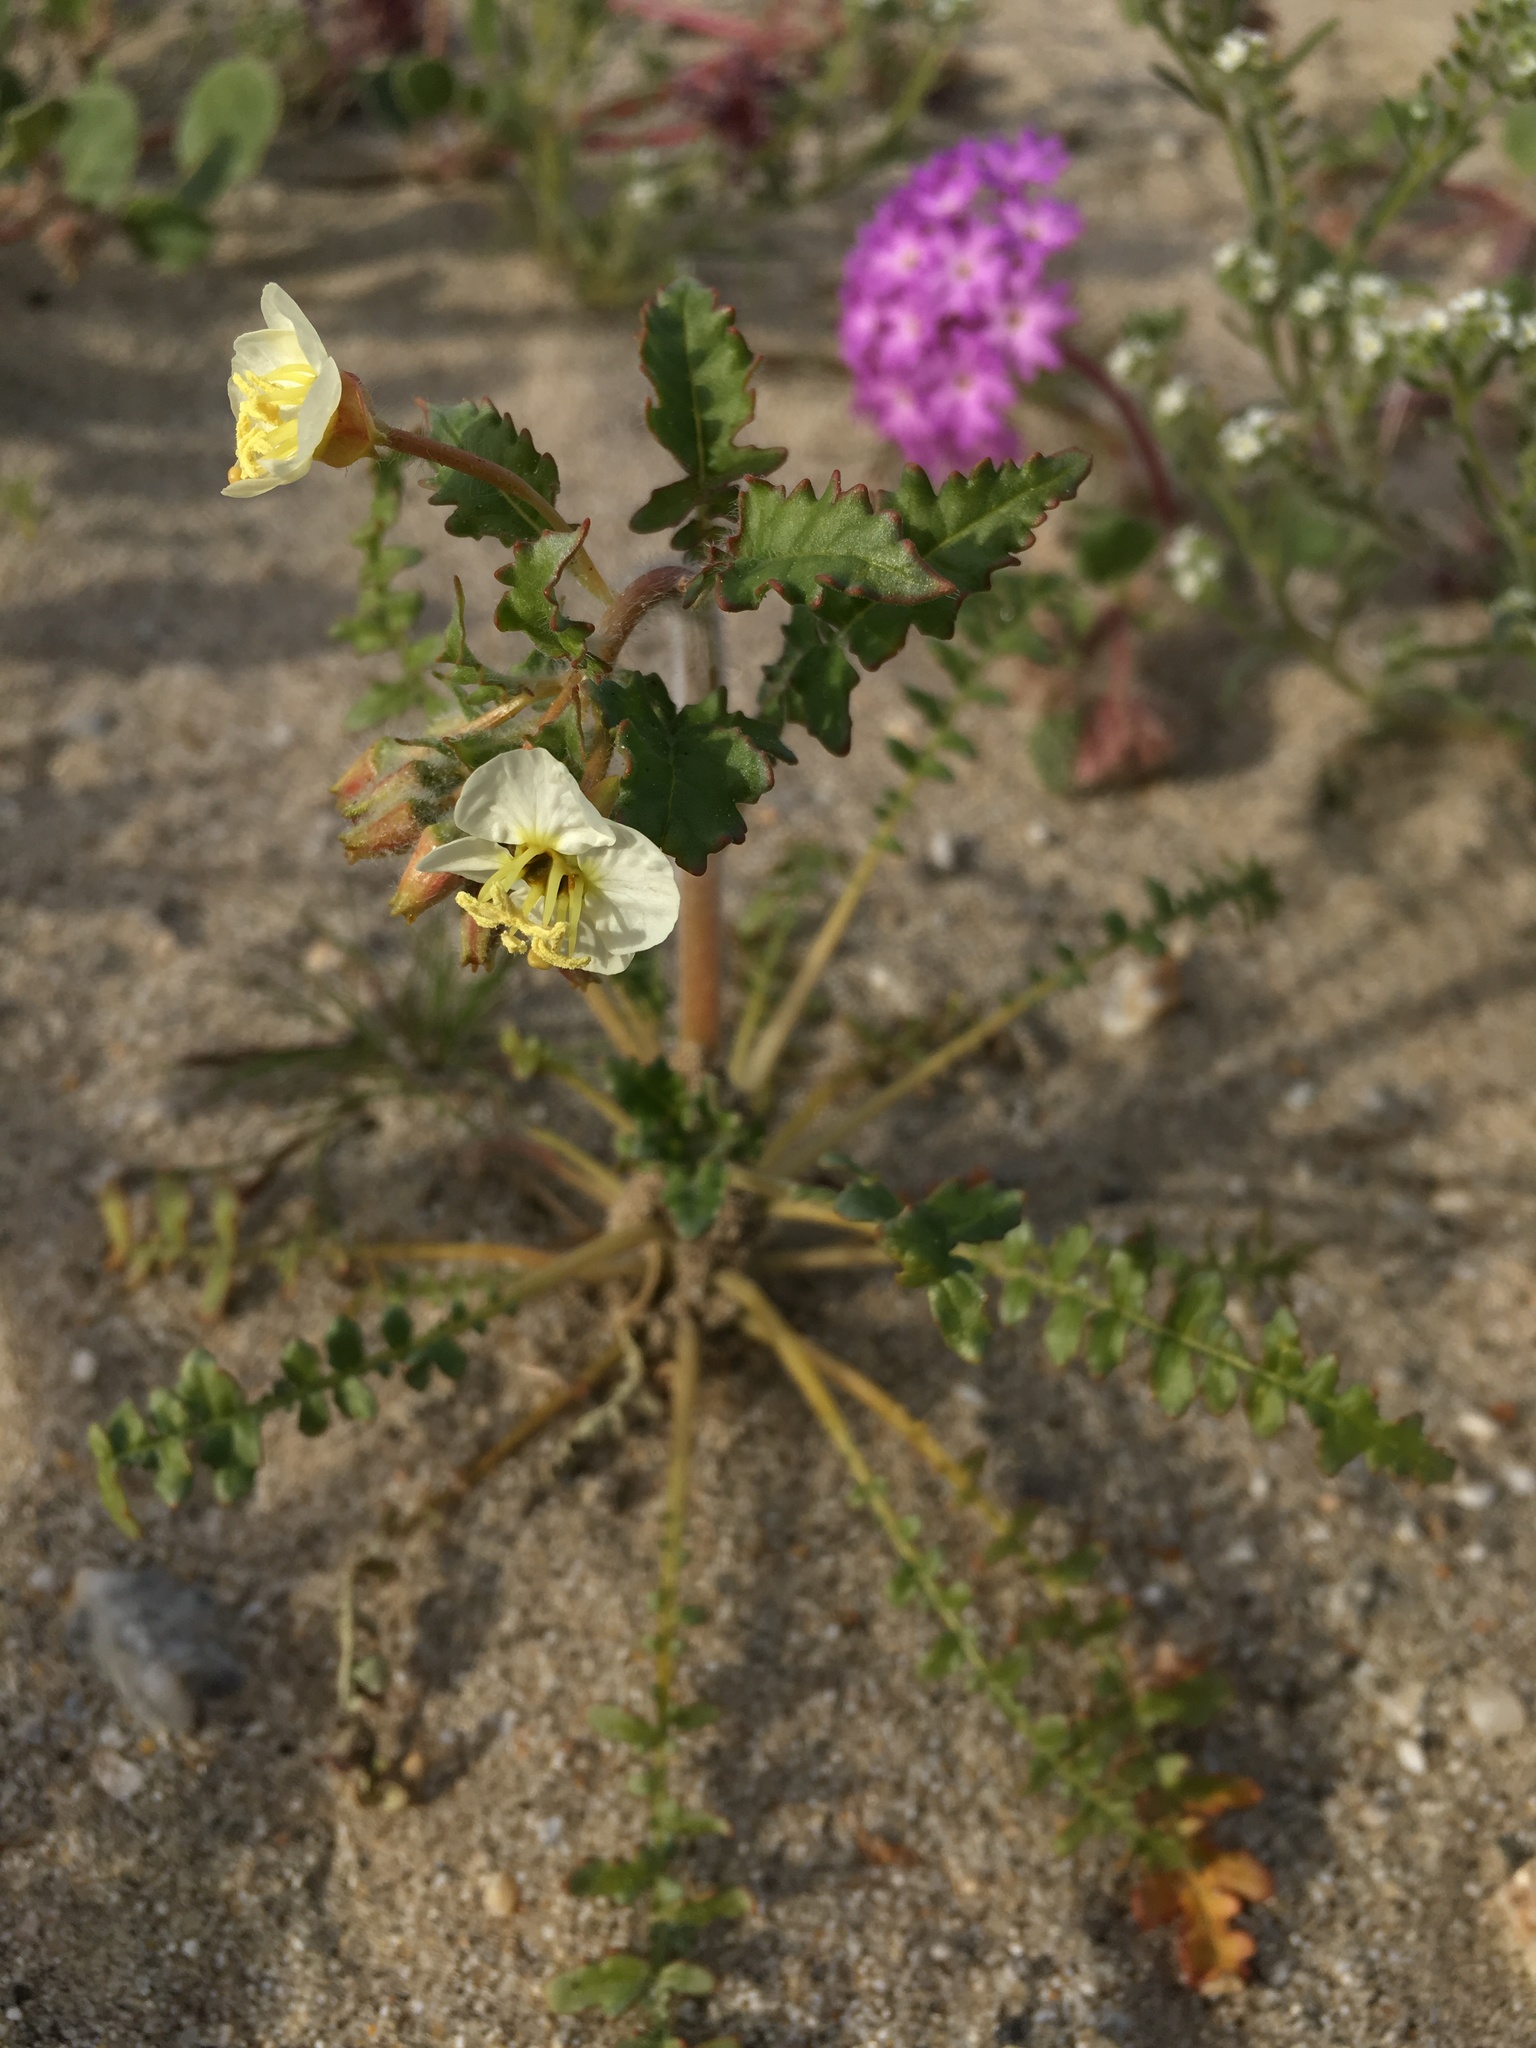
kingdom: Plantae
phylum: Tracheophyta
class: Magnoliopsida
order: Myrtales
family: Onagraceae
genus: Chylismia
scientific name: Chylismia claviformis
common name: Browneyes
